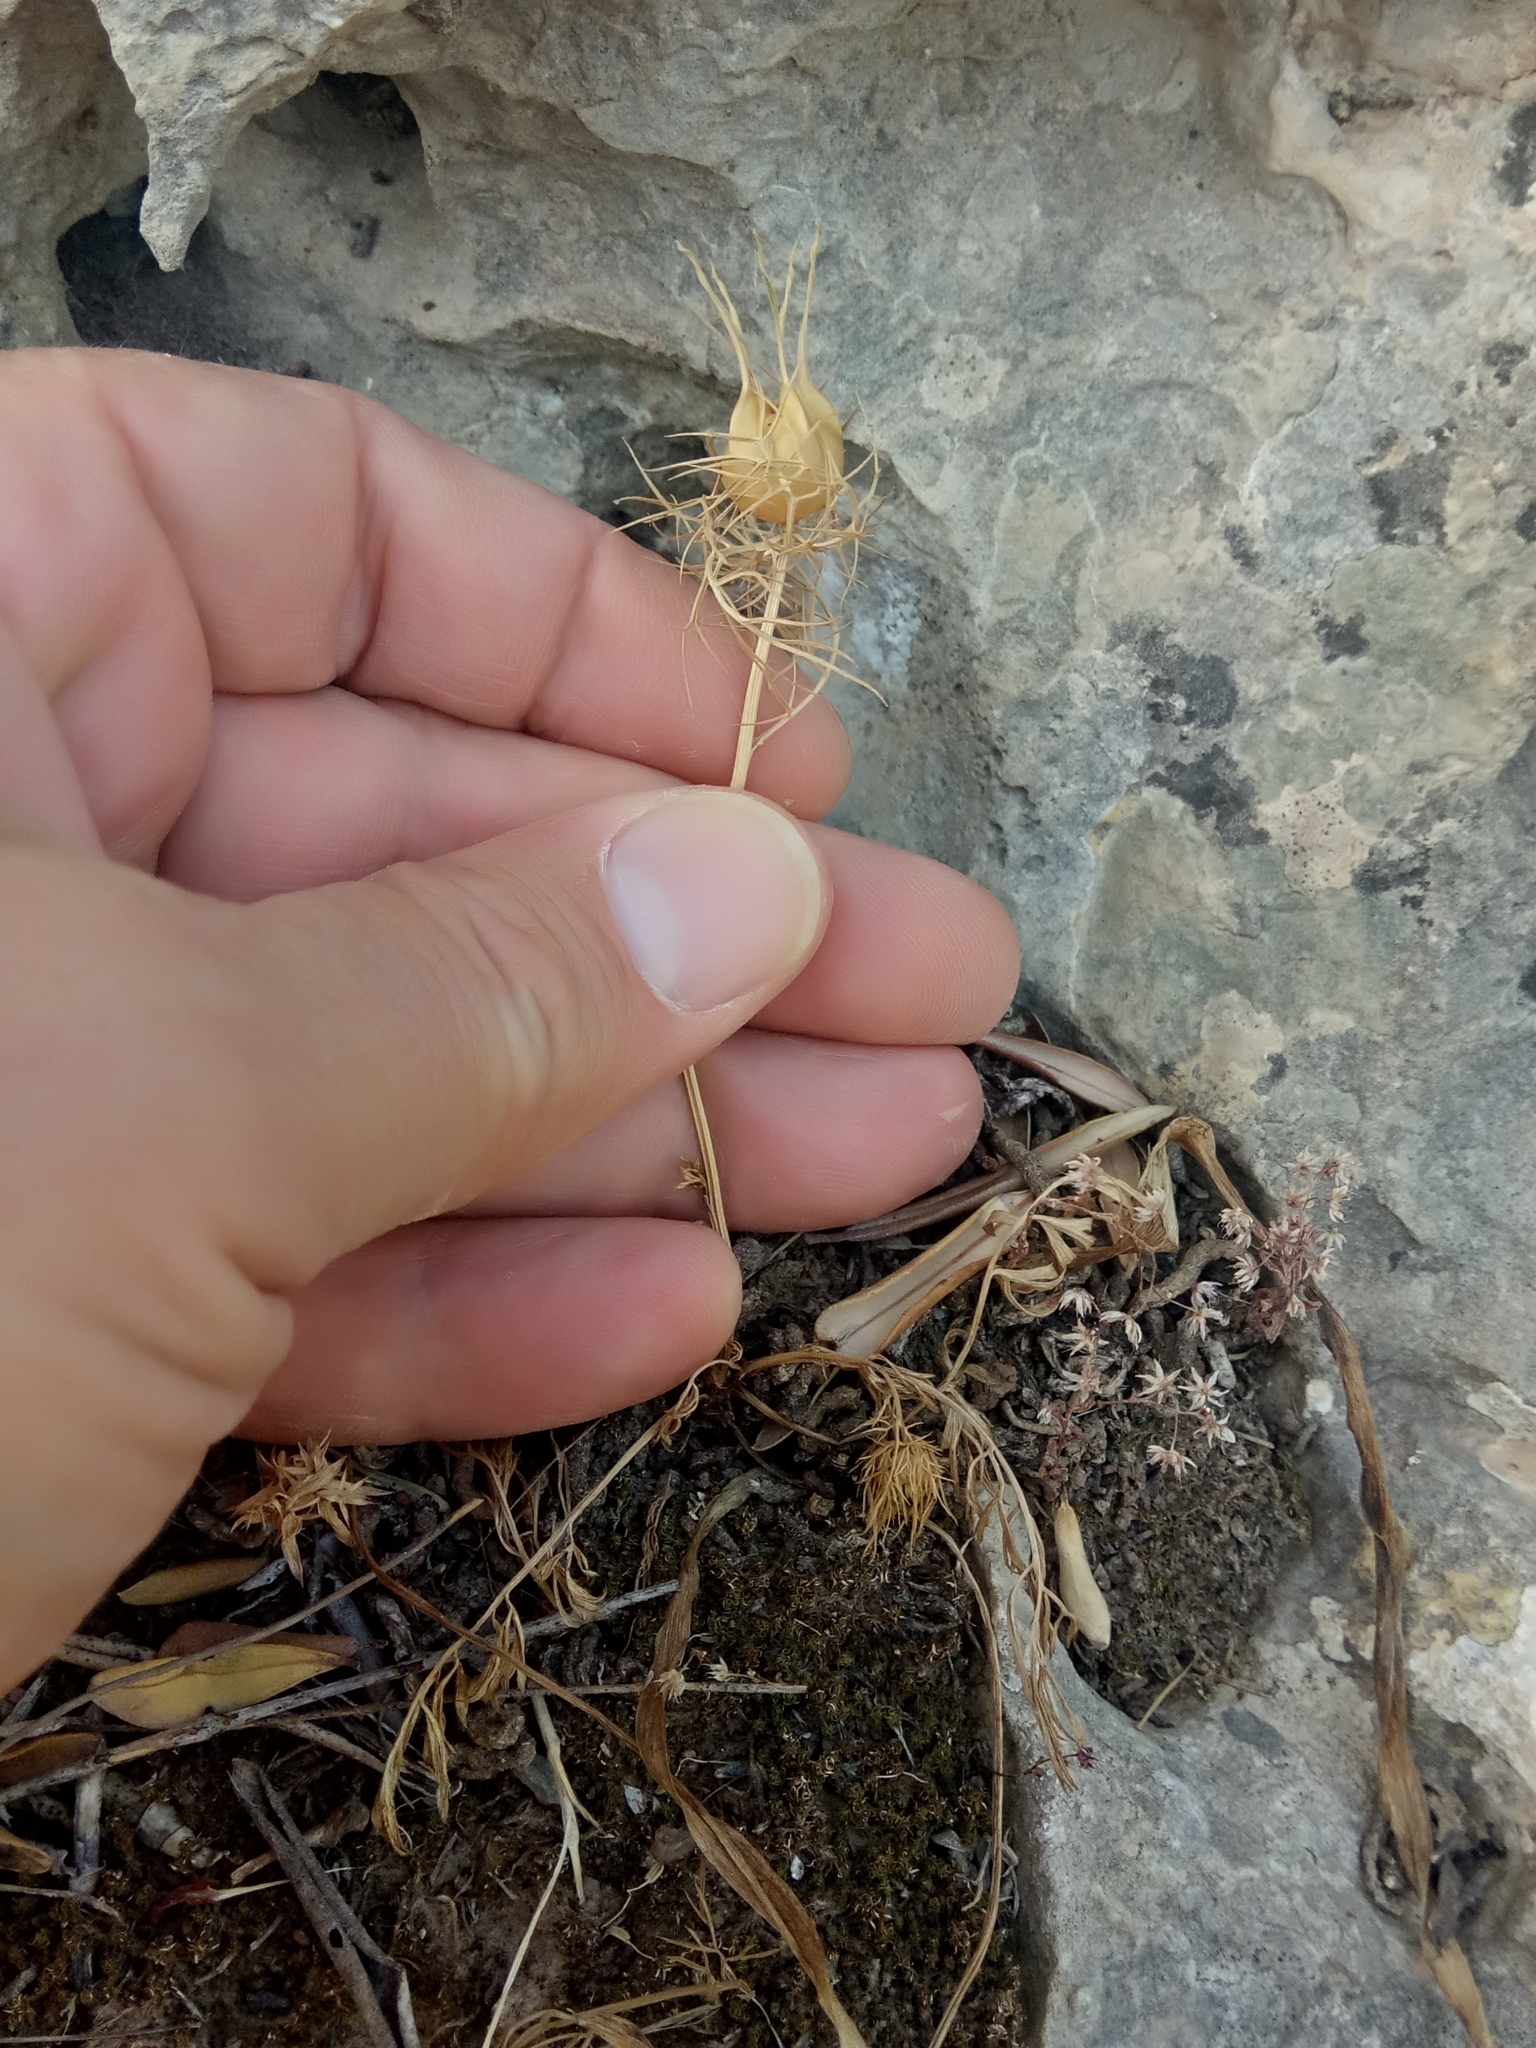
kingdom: Plantae
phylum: Tracheophyta
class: Magnoliopsida
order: Ranunculales
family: Ranunculaceae
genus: Nigella
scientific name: Nigella damascena
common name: Love-in-a-mist
